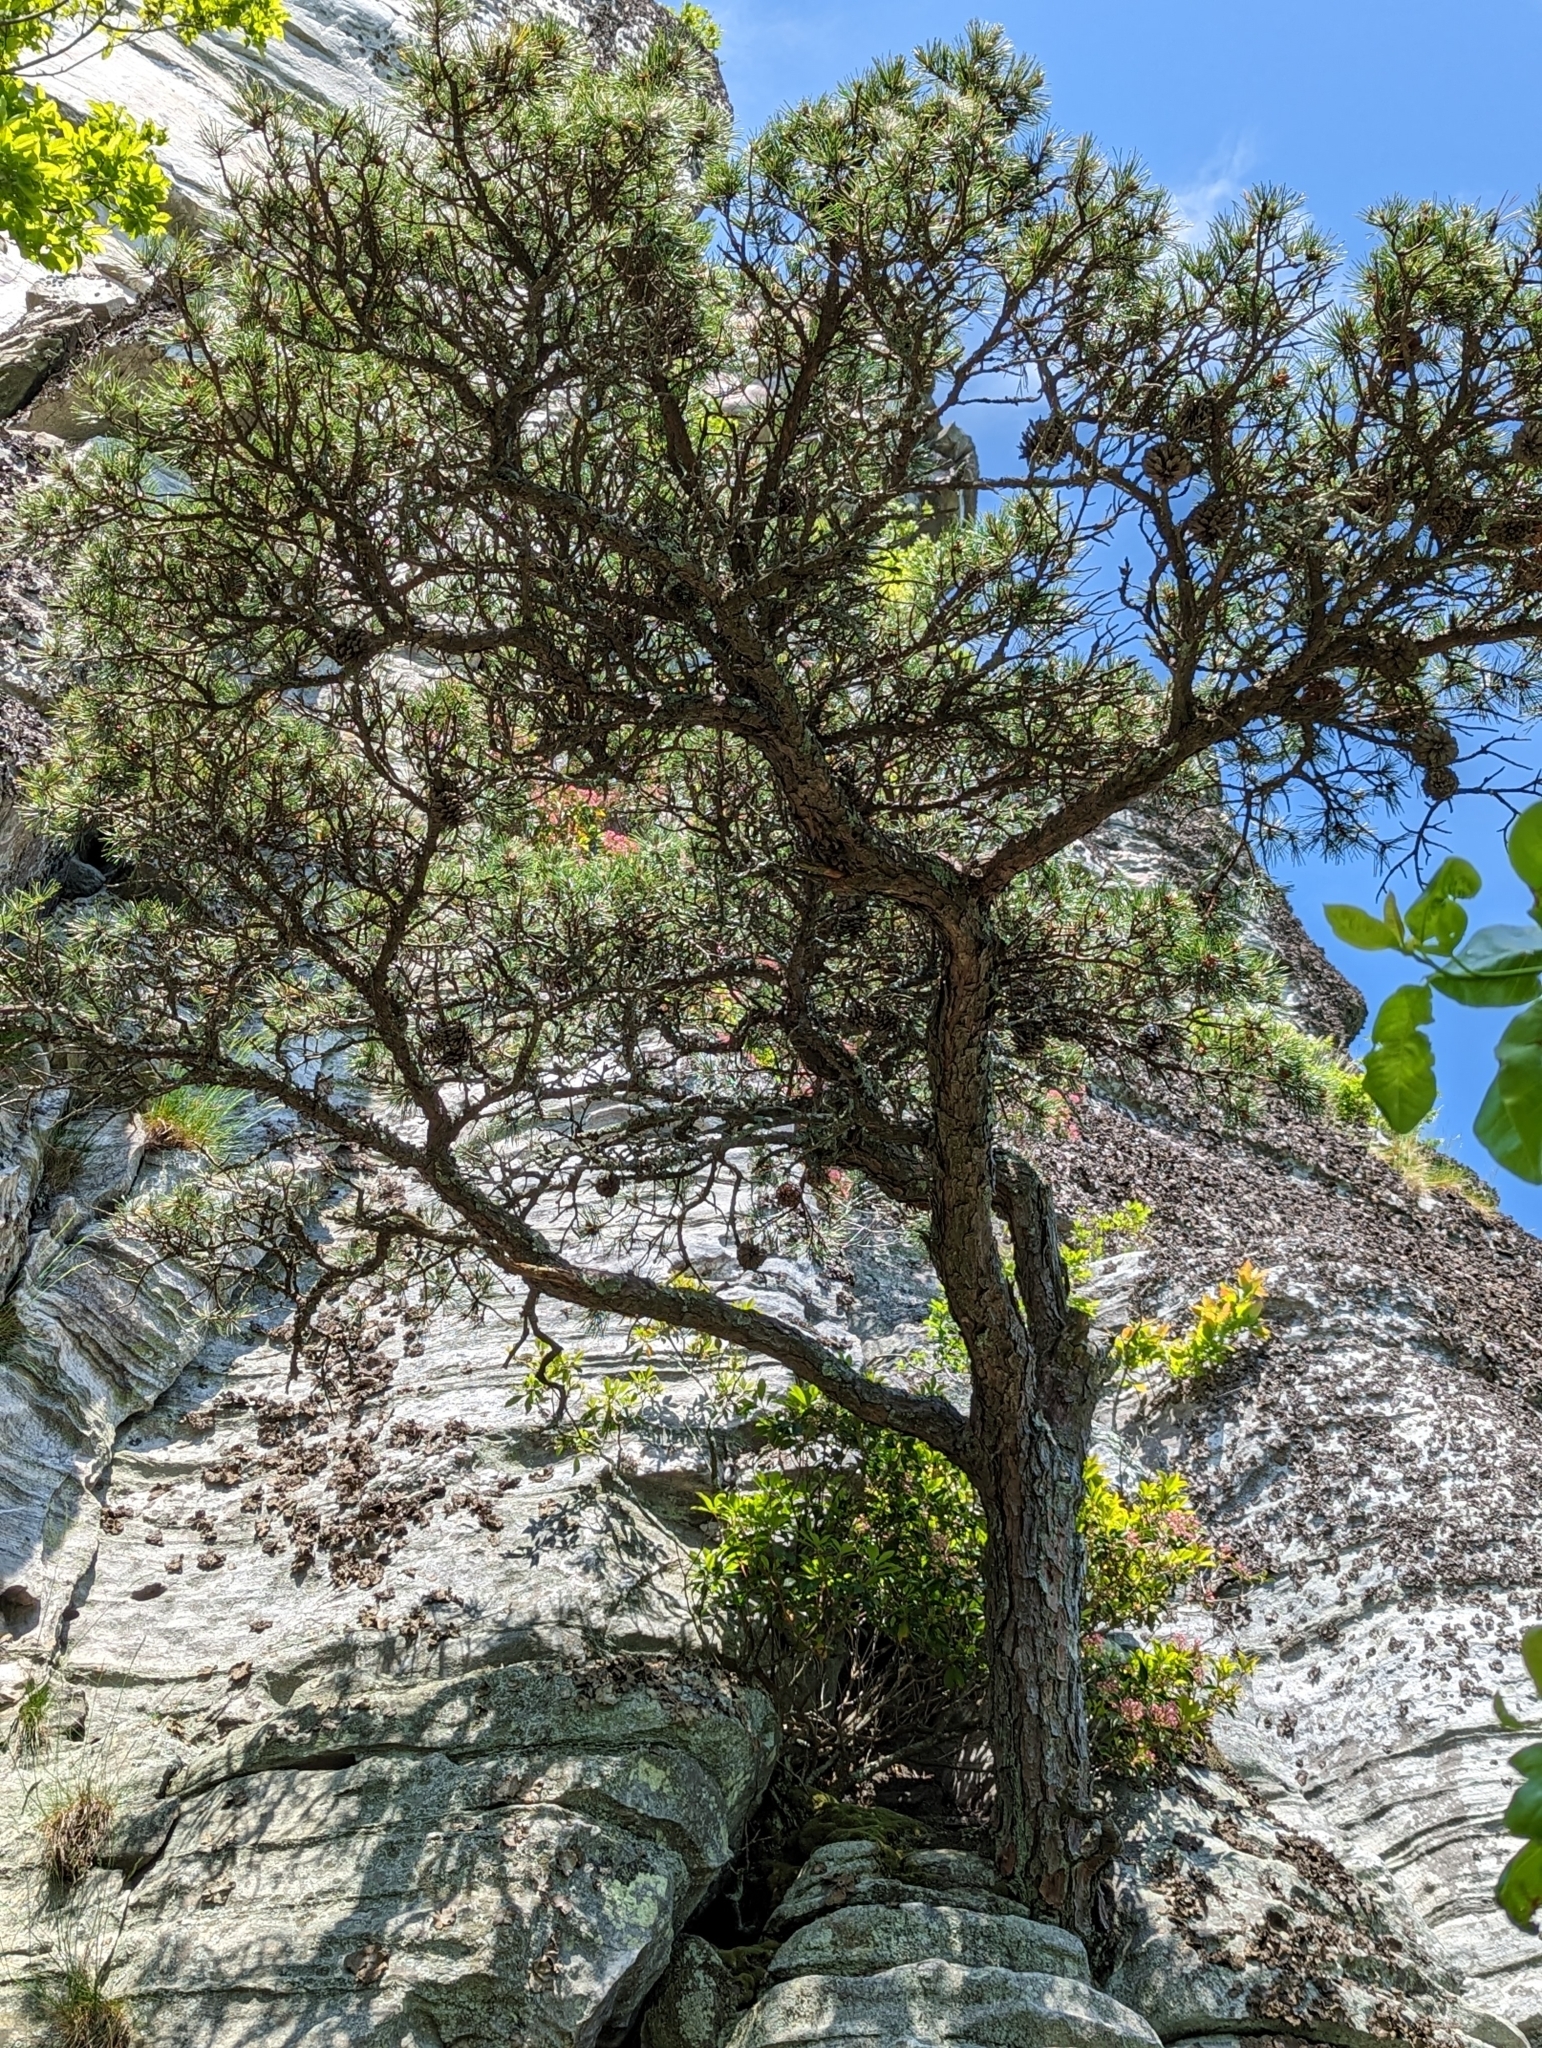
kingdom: Plantae
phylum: Tracheophyta
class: Pinopsida
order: Pinales
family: Pinaceae
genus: Pinus
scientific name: Pinus pungens
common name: Hickory pine
